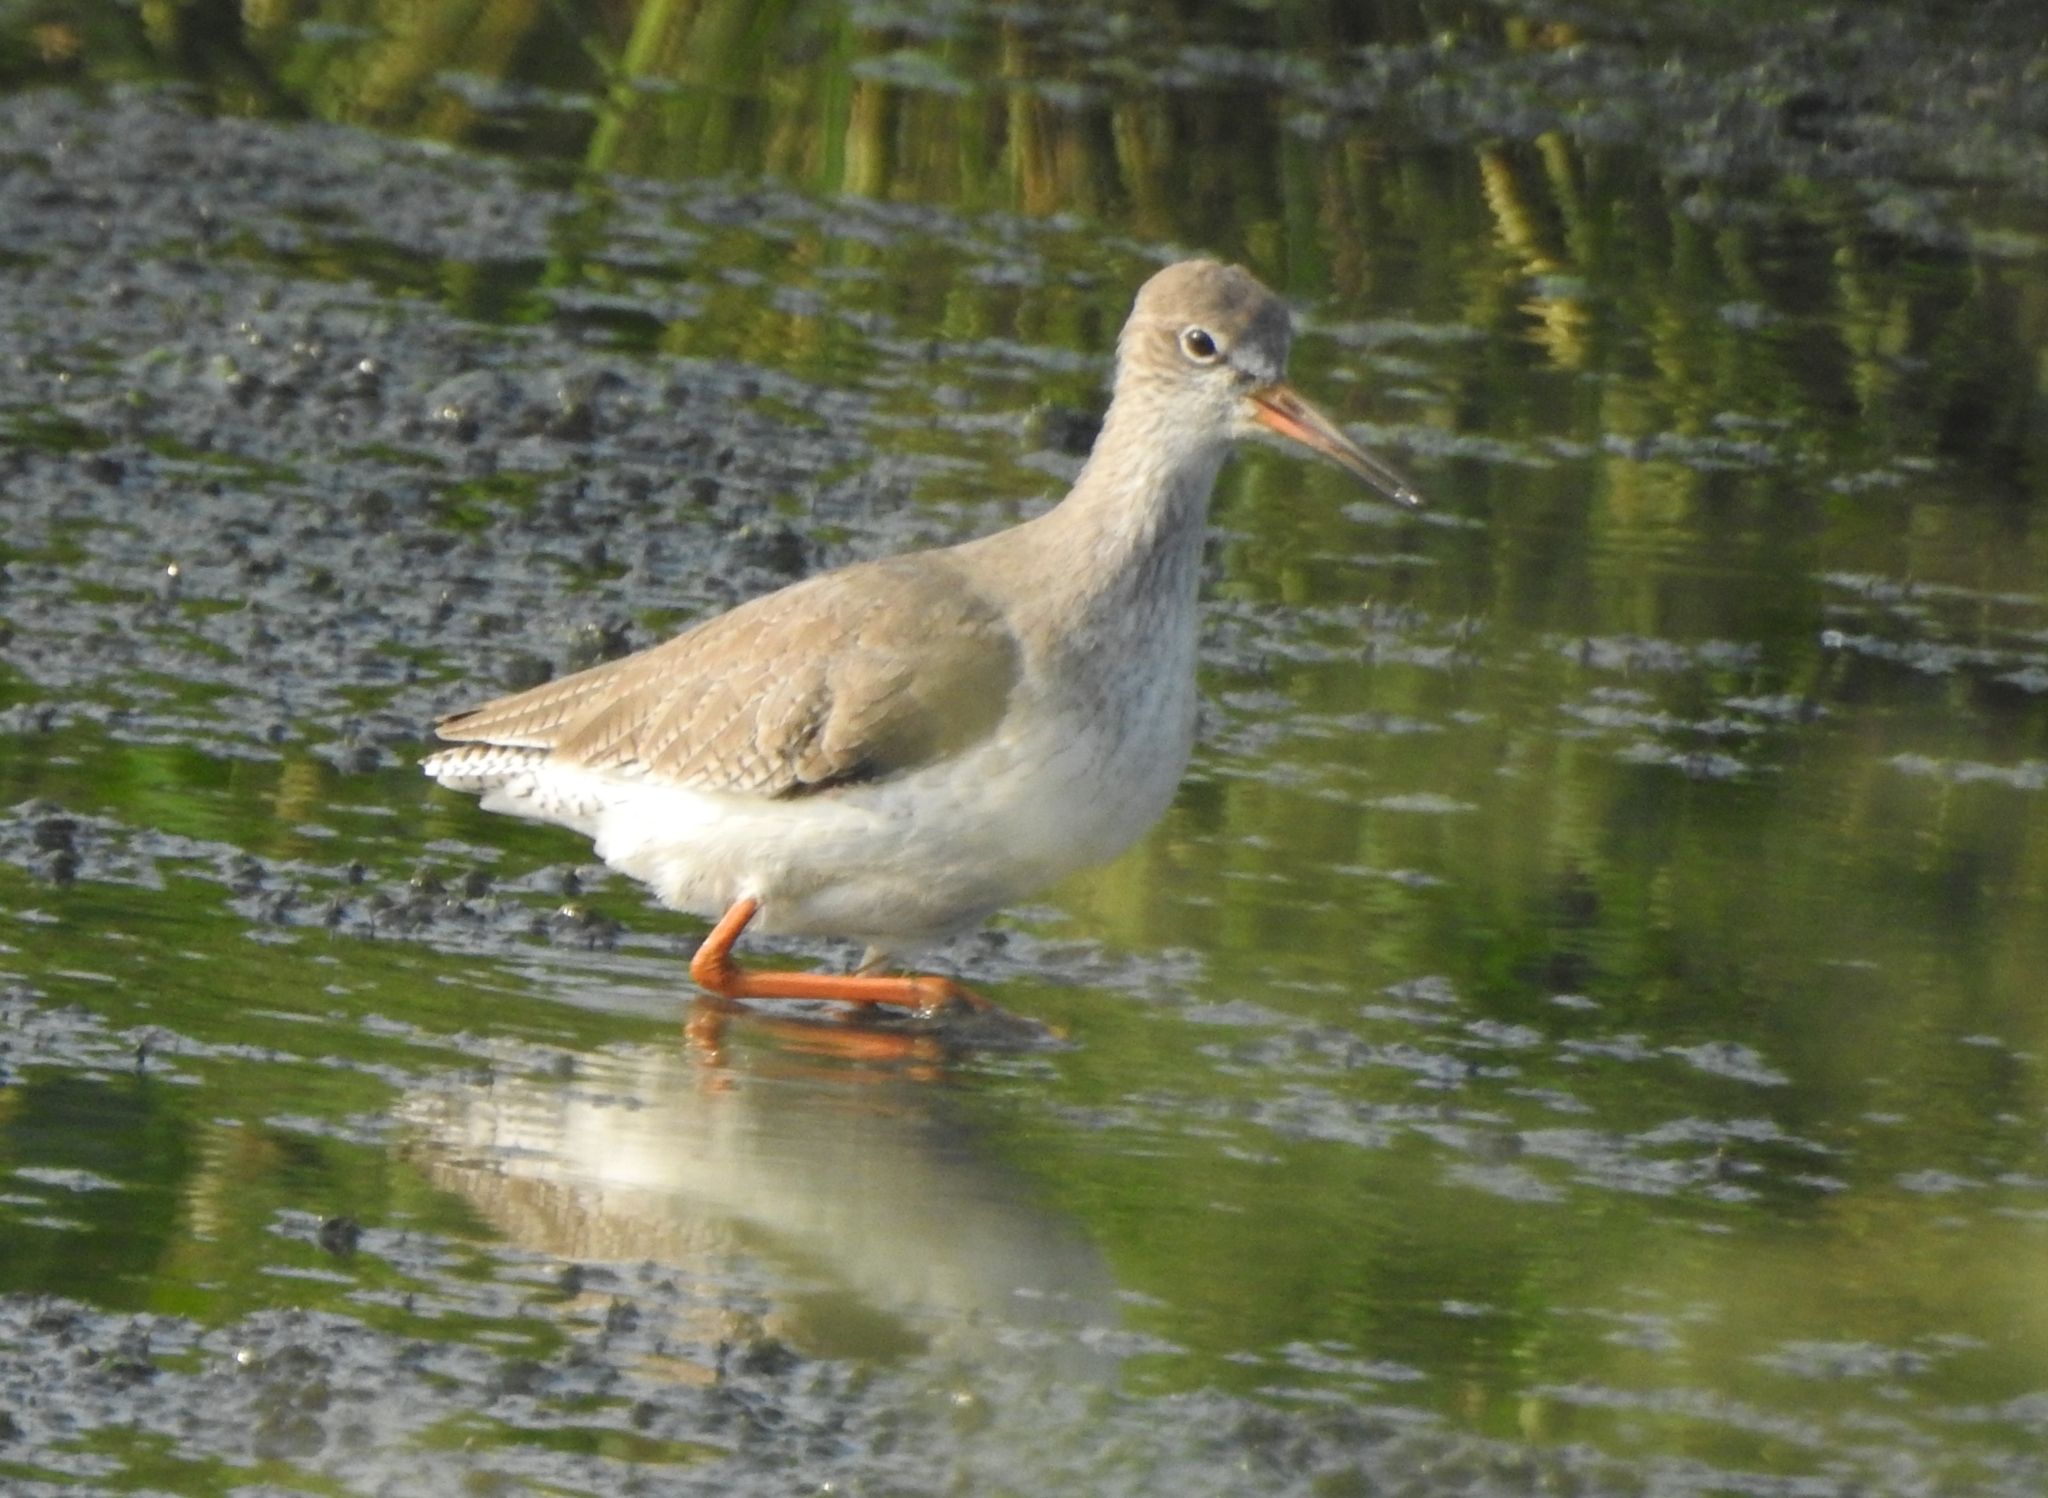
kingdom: Animalia
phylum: Chordata
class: Aves
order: Charadriiformes
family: Scolopacidae
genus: Tringa
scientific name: Tringa totanus
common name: Common redshank
